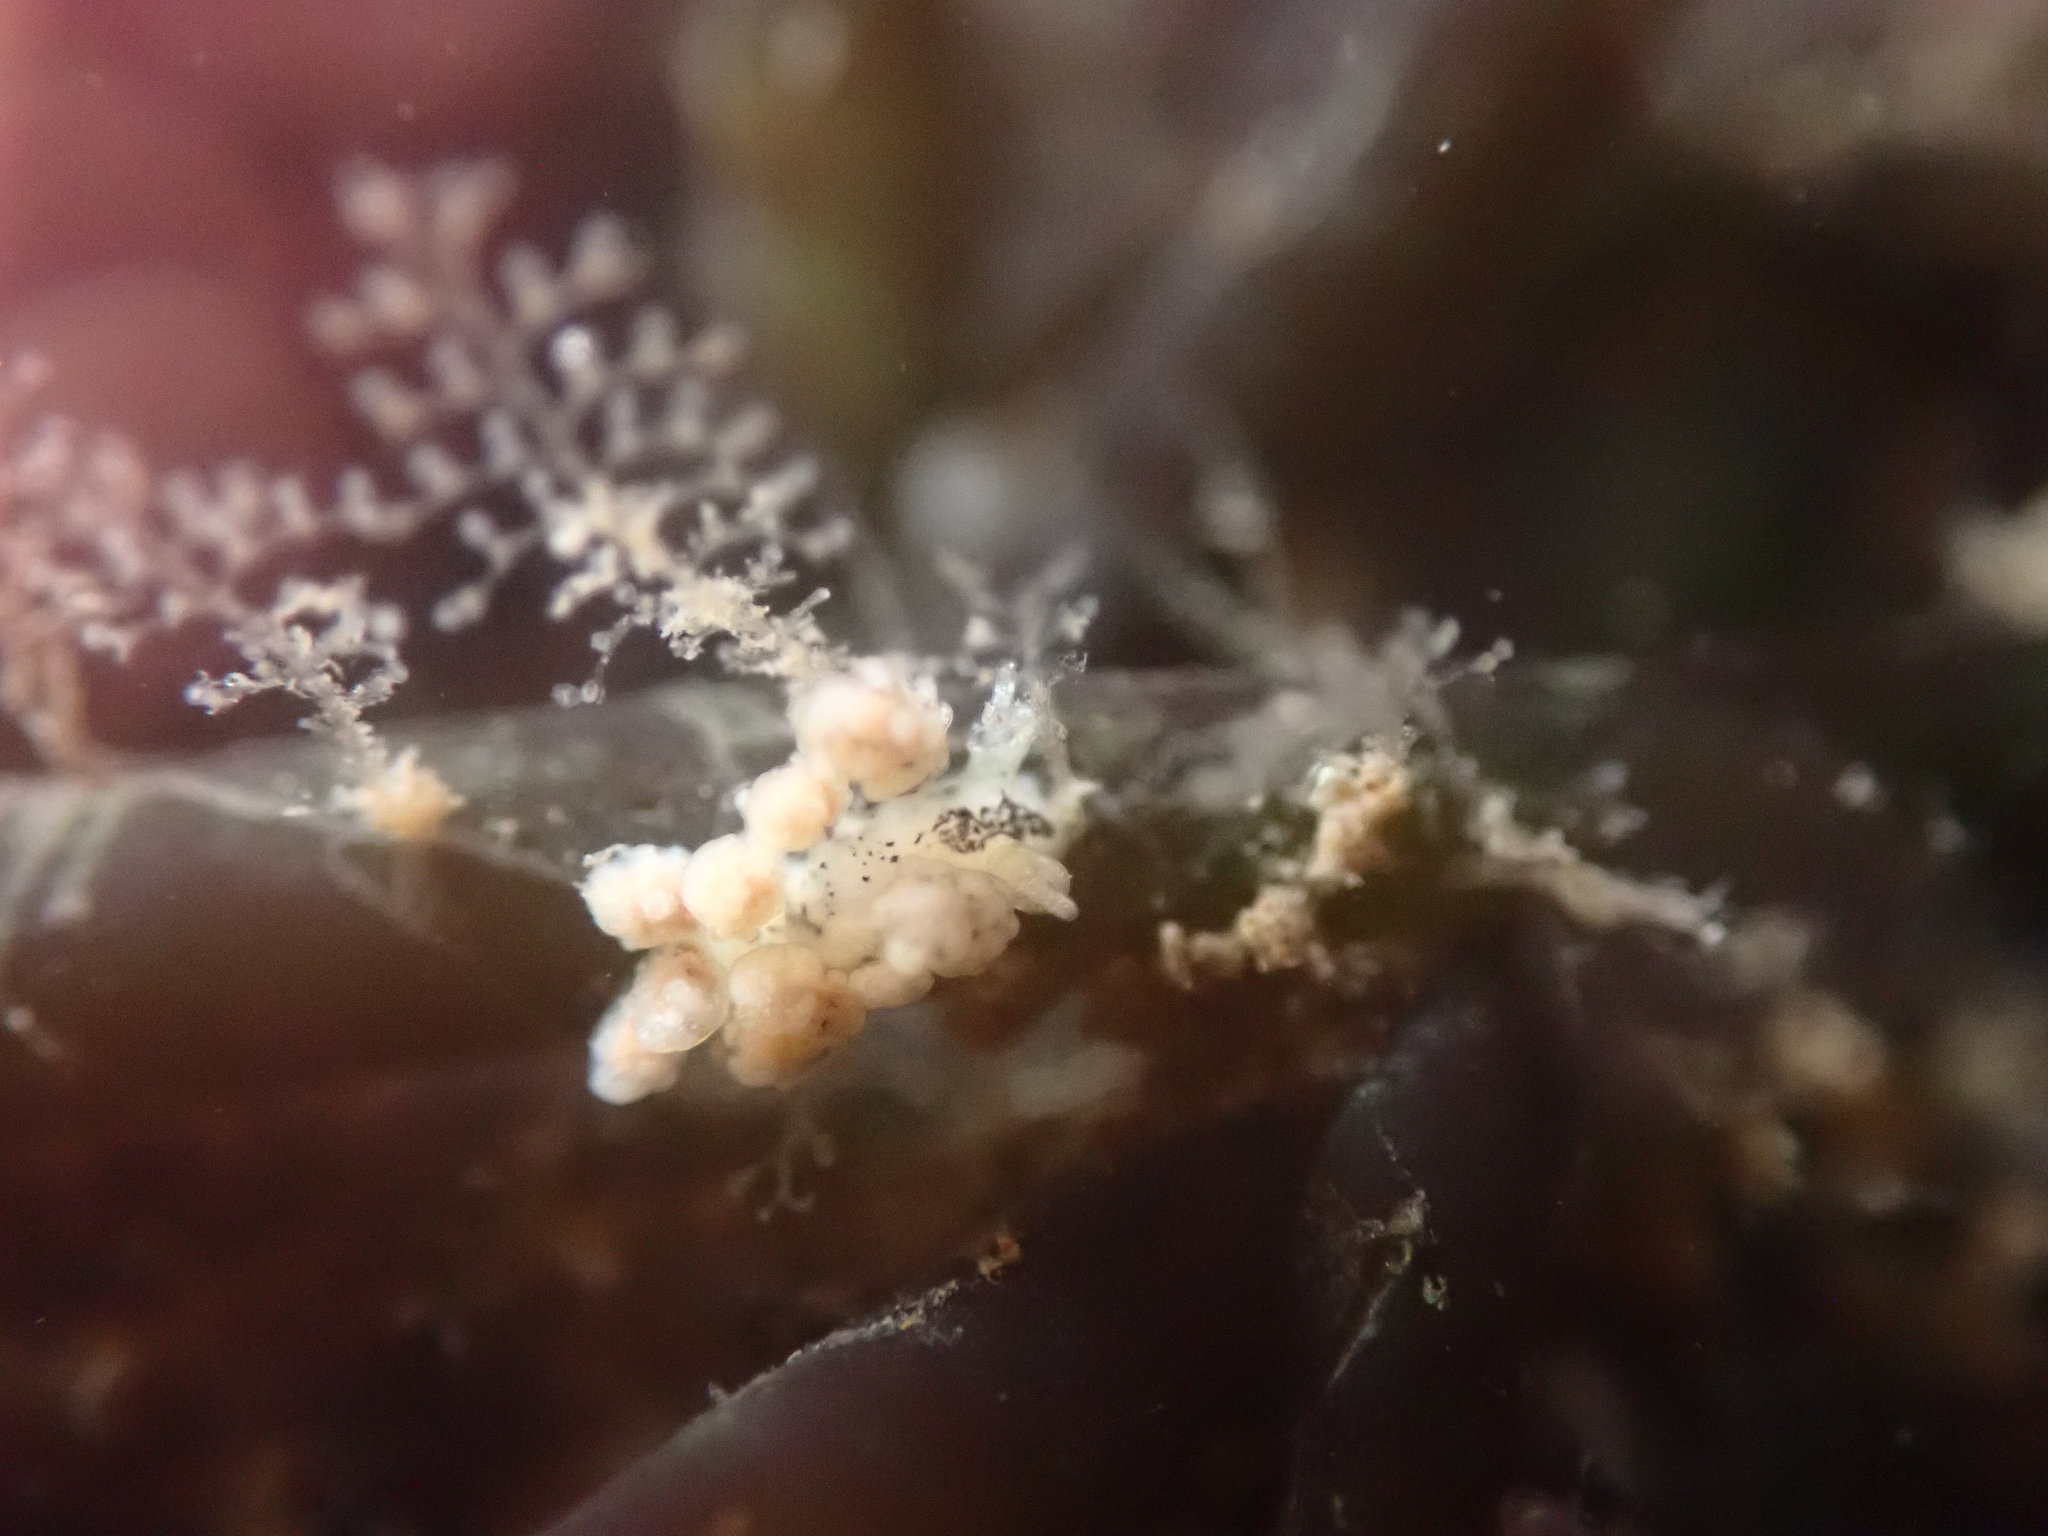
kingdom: Animalia
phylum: Mollusca
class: Gastropoda
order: Nudibranchia
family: Dotidae
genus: Doto
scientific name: Doto kya
